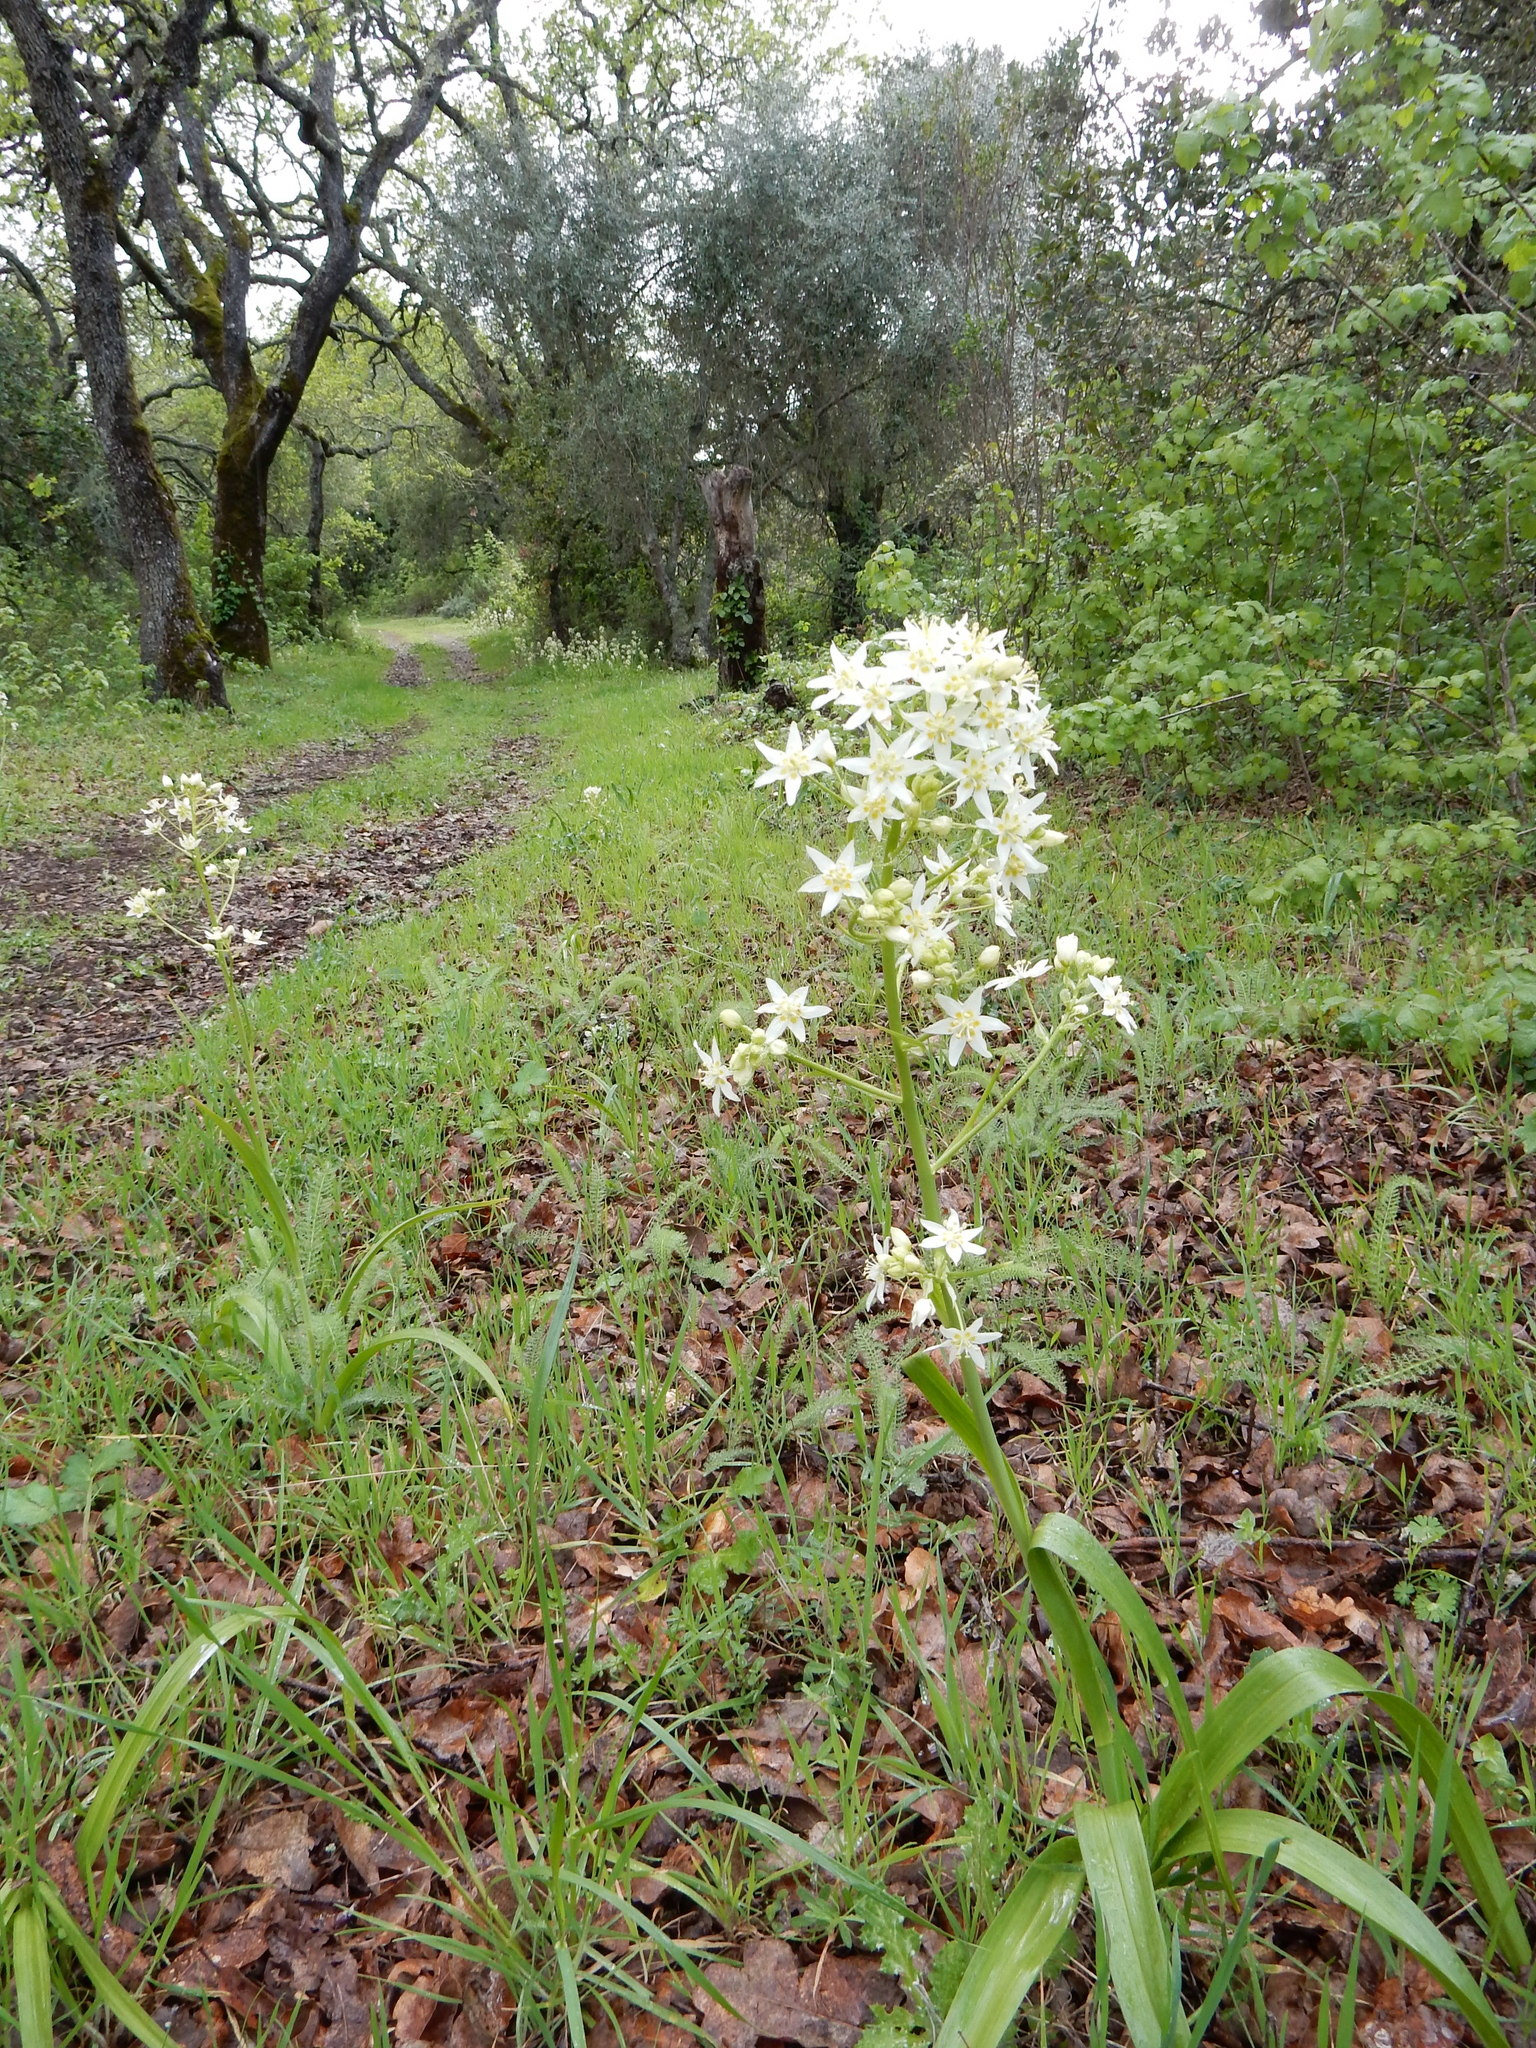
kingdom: Plantae
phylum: Tracheophyta
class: Liliopsida
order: Liliales
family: Melanthiaceae
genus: Toxicoscordion
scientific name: Toxicoscordion fremontii
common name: Fremont's death camas
